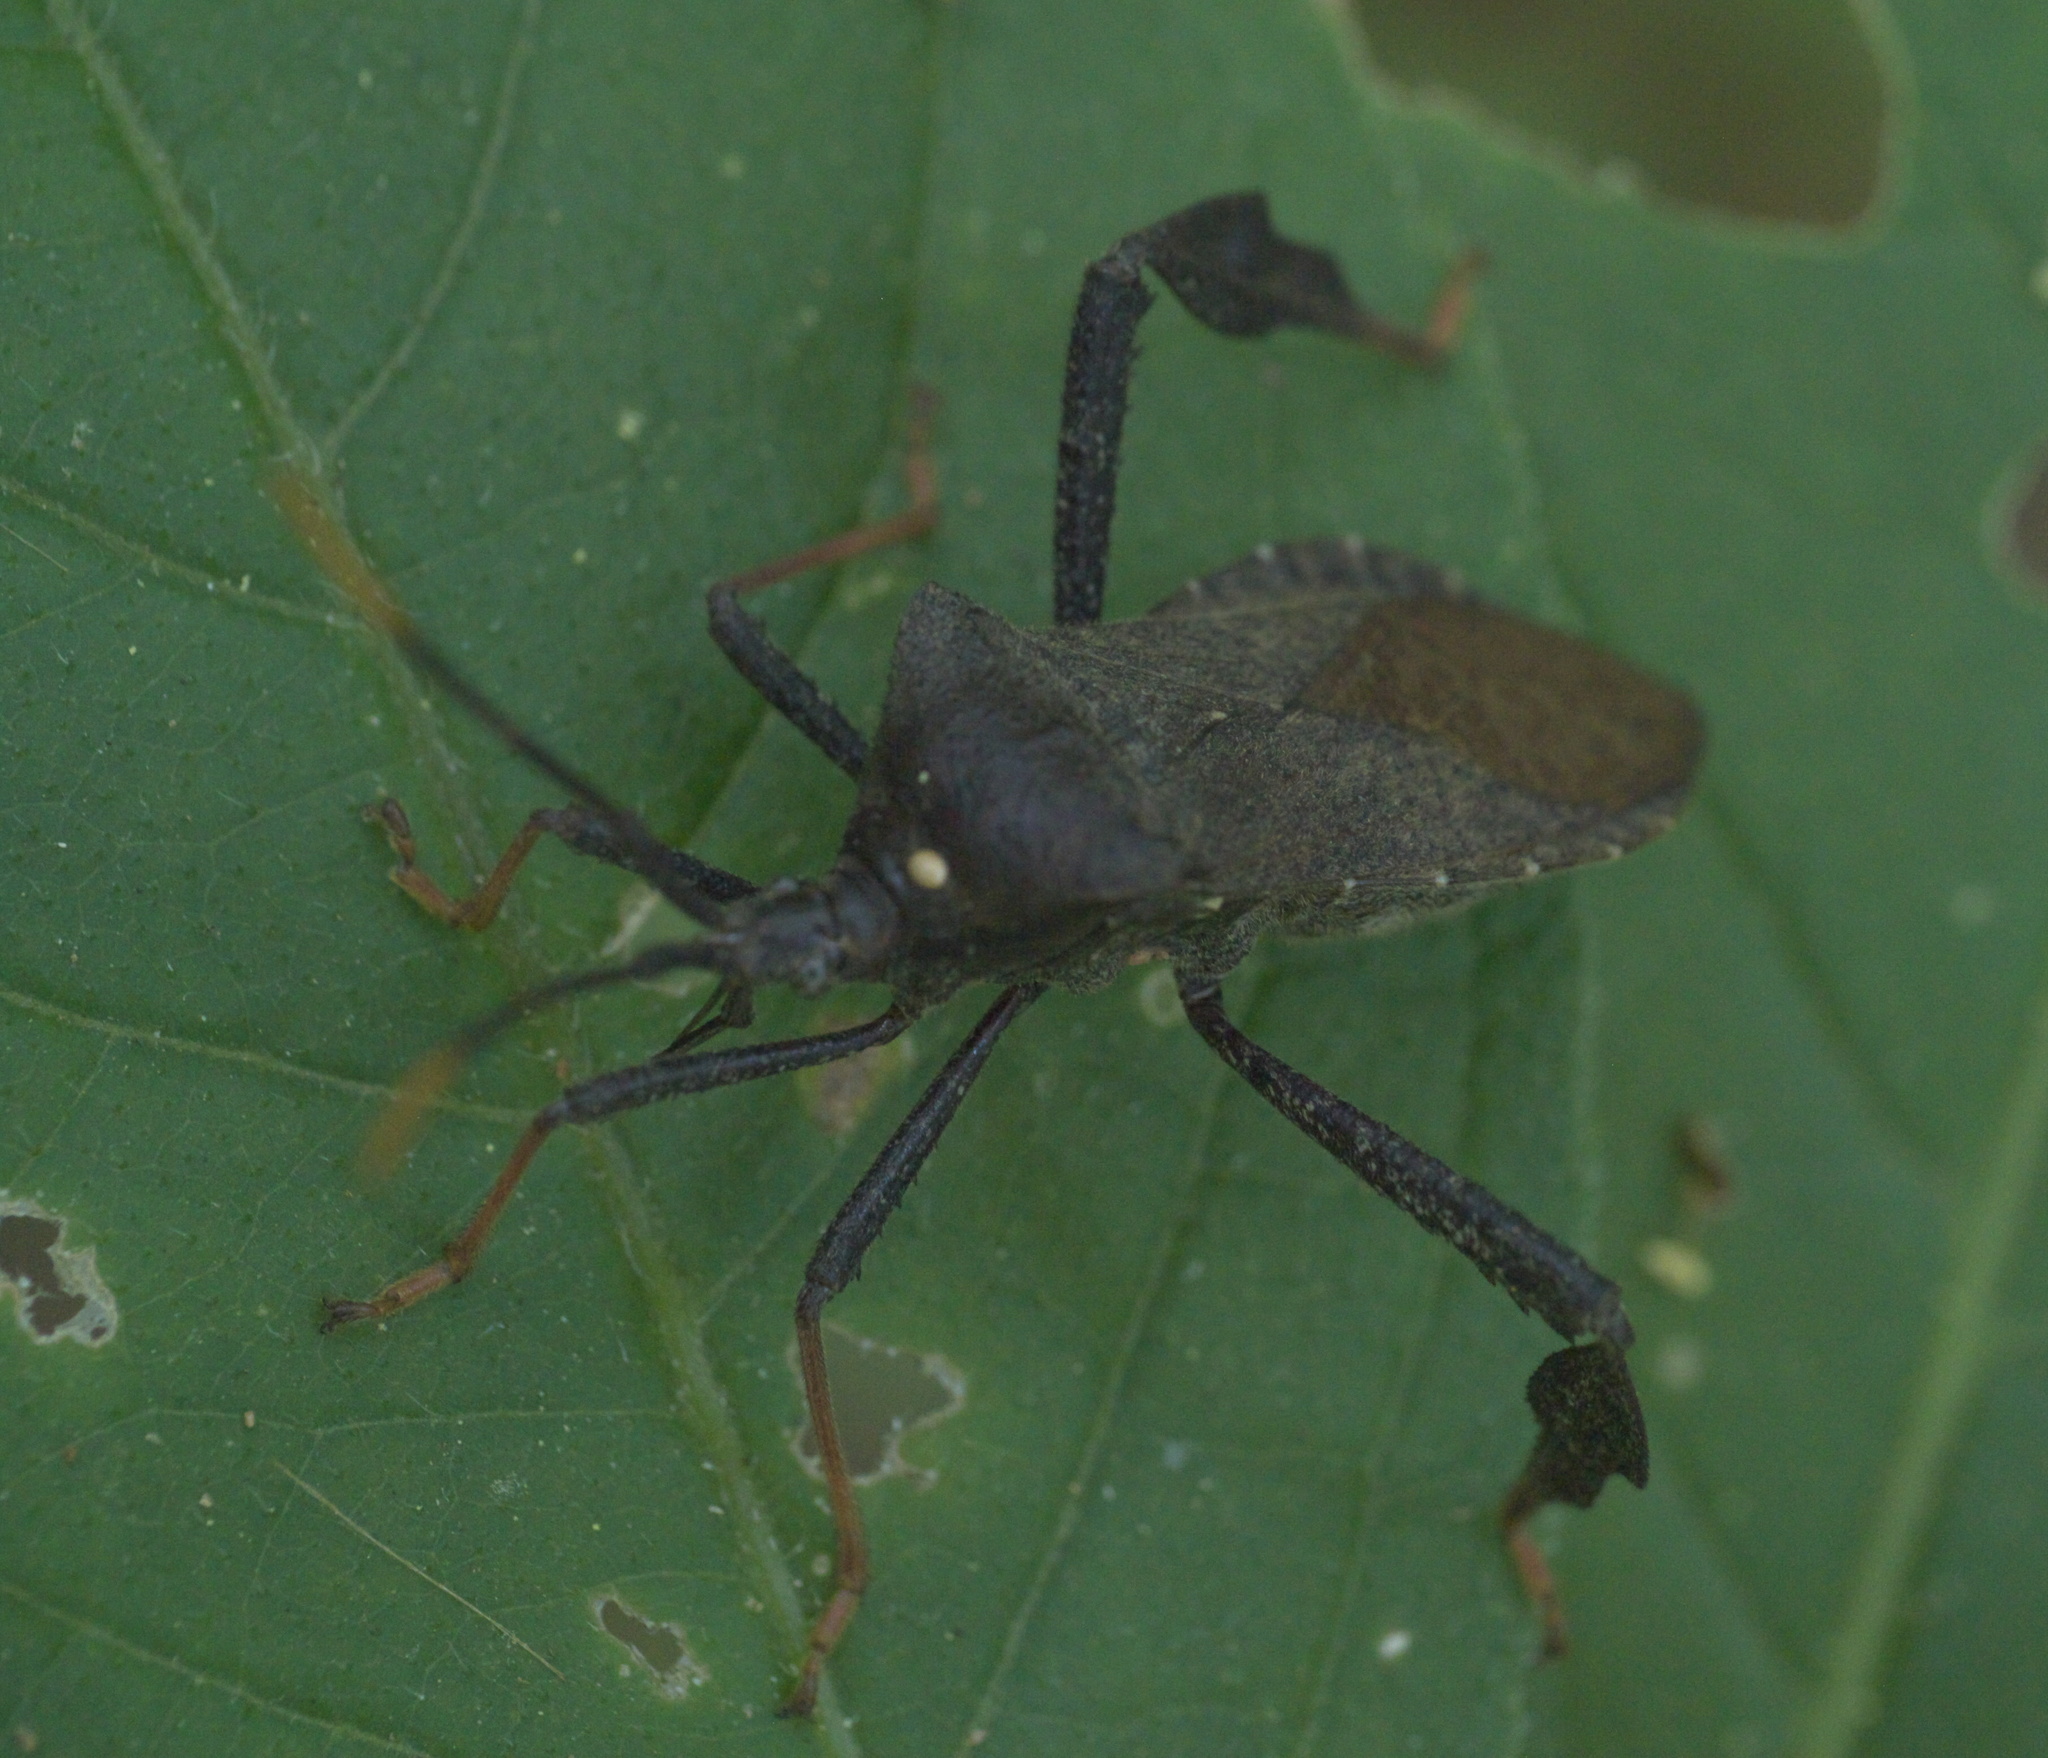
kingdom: Animalia
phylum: Arthropoda
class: Insecta
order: Hemiptera
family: Coreidae
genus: Acanthocephala
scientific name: Acanthocephala terminalis
